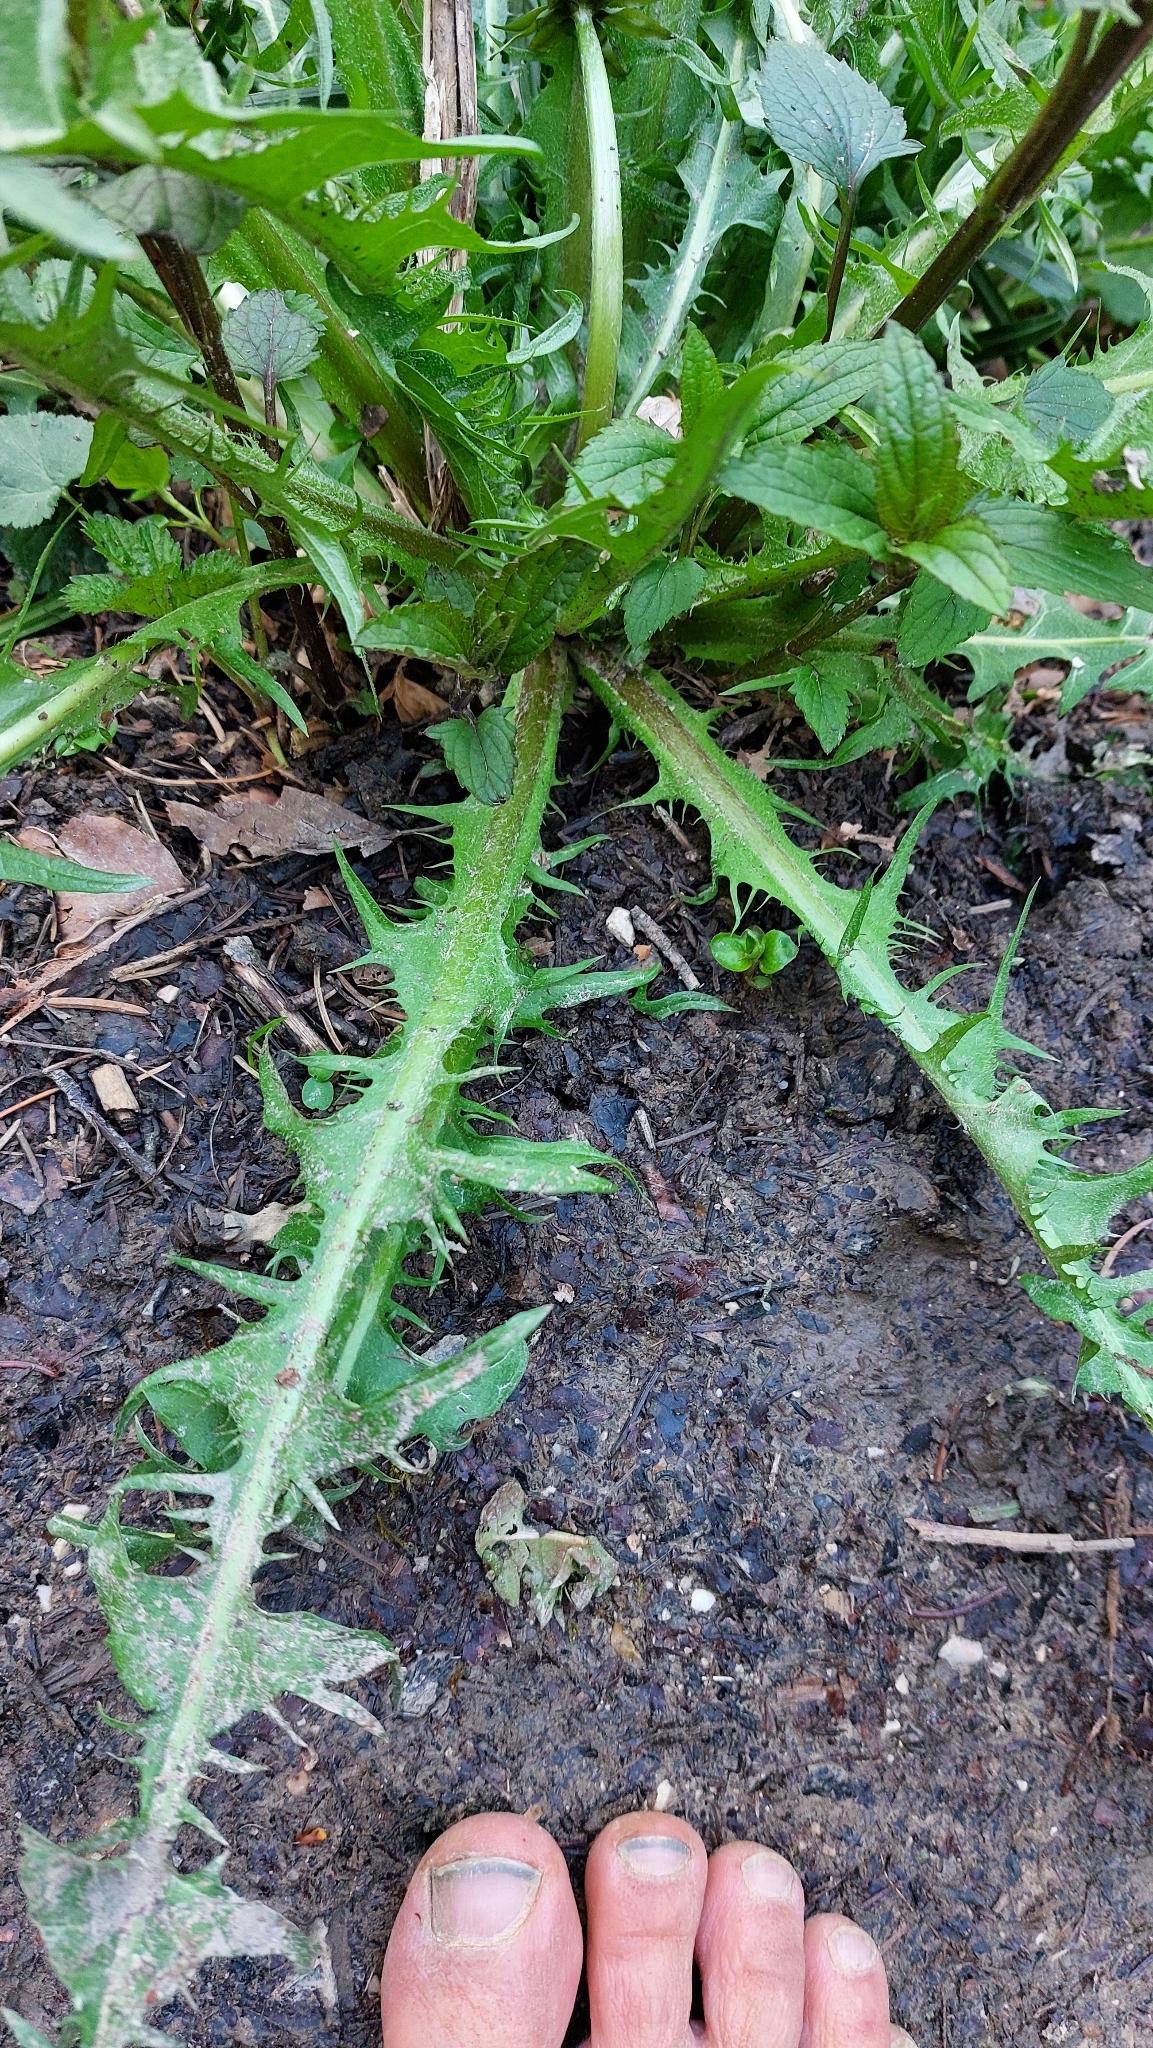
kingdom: Plantae
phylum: Tracheophyta
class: Magnoliopsida
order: Asterales
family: Asteraceae
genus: Taraxacum
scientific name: Taraxacum
